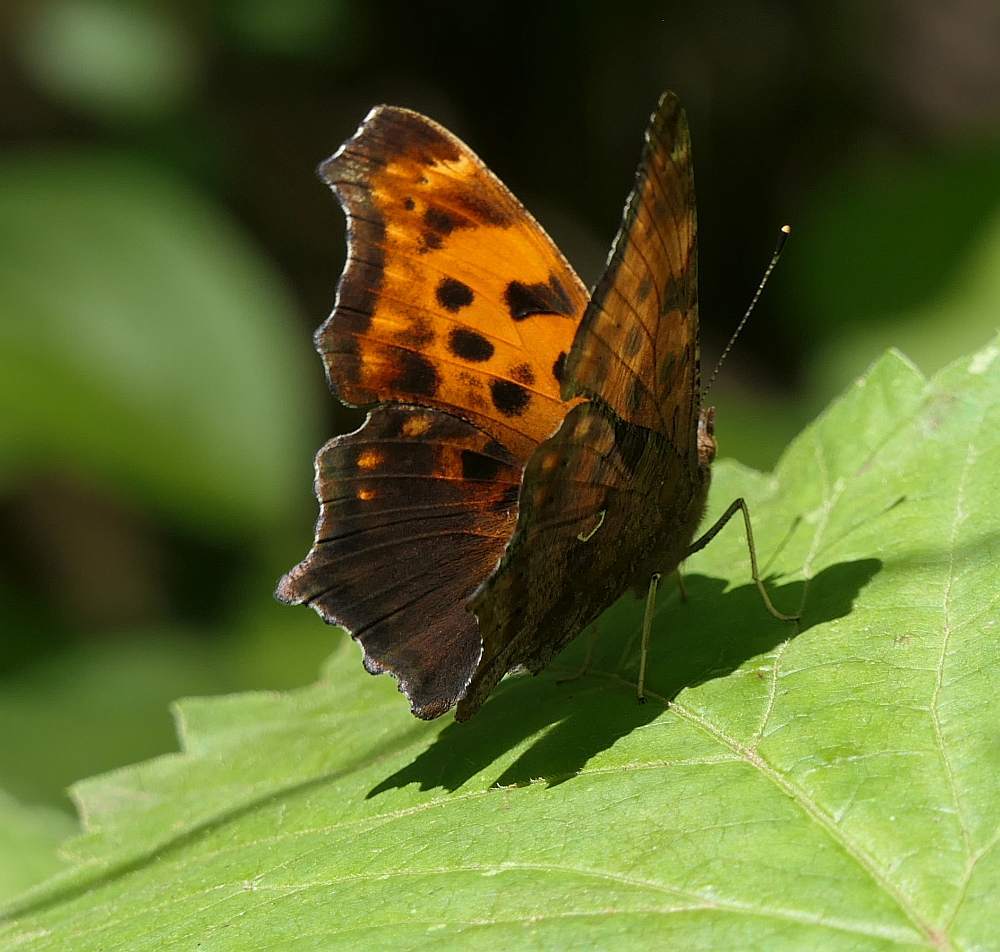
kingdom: Animalia
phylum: Arthropoda
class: Insecta
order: Lepidoptera
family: Nymphalidae
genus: Polygonia
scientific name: Polygonia comma
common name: Eastern comma
